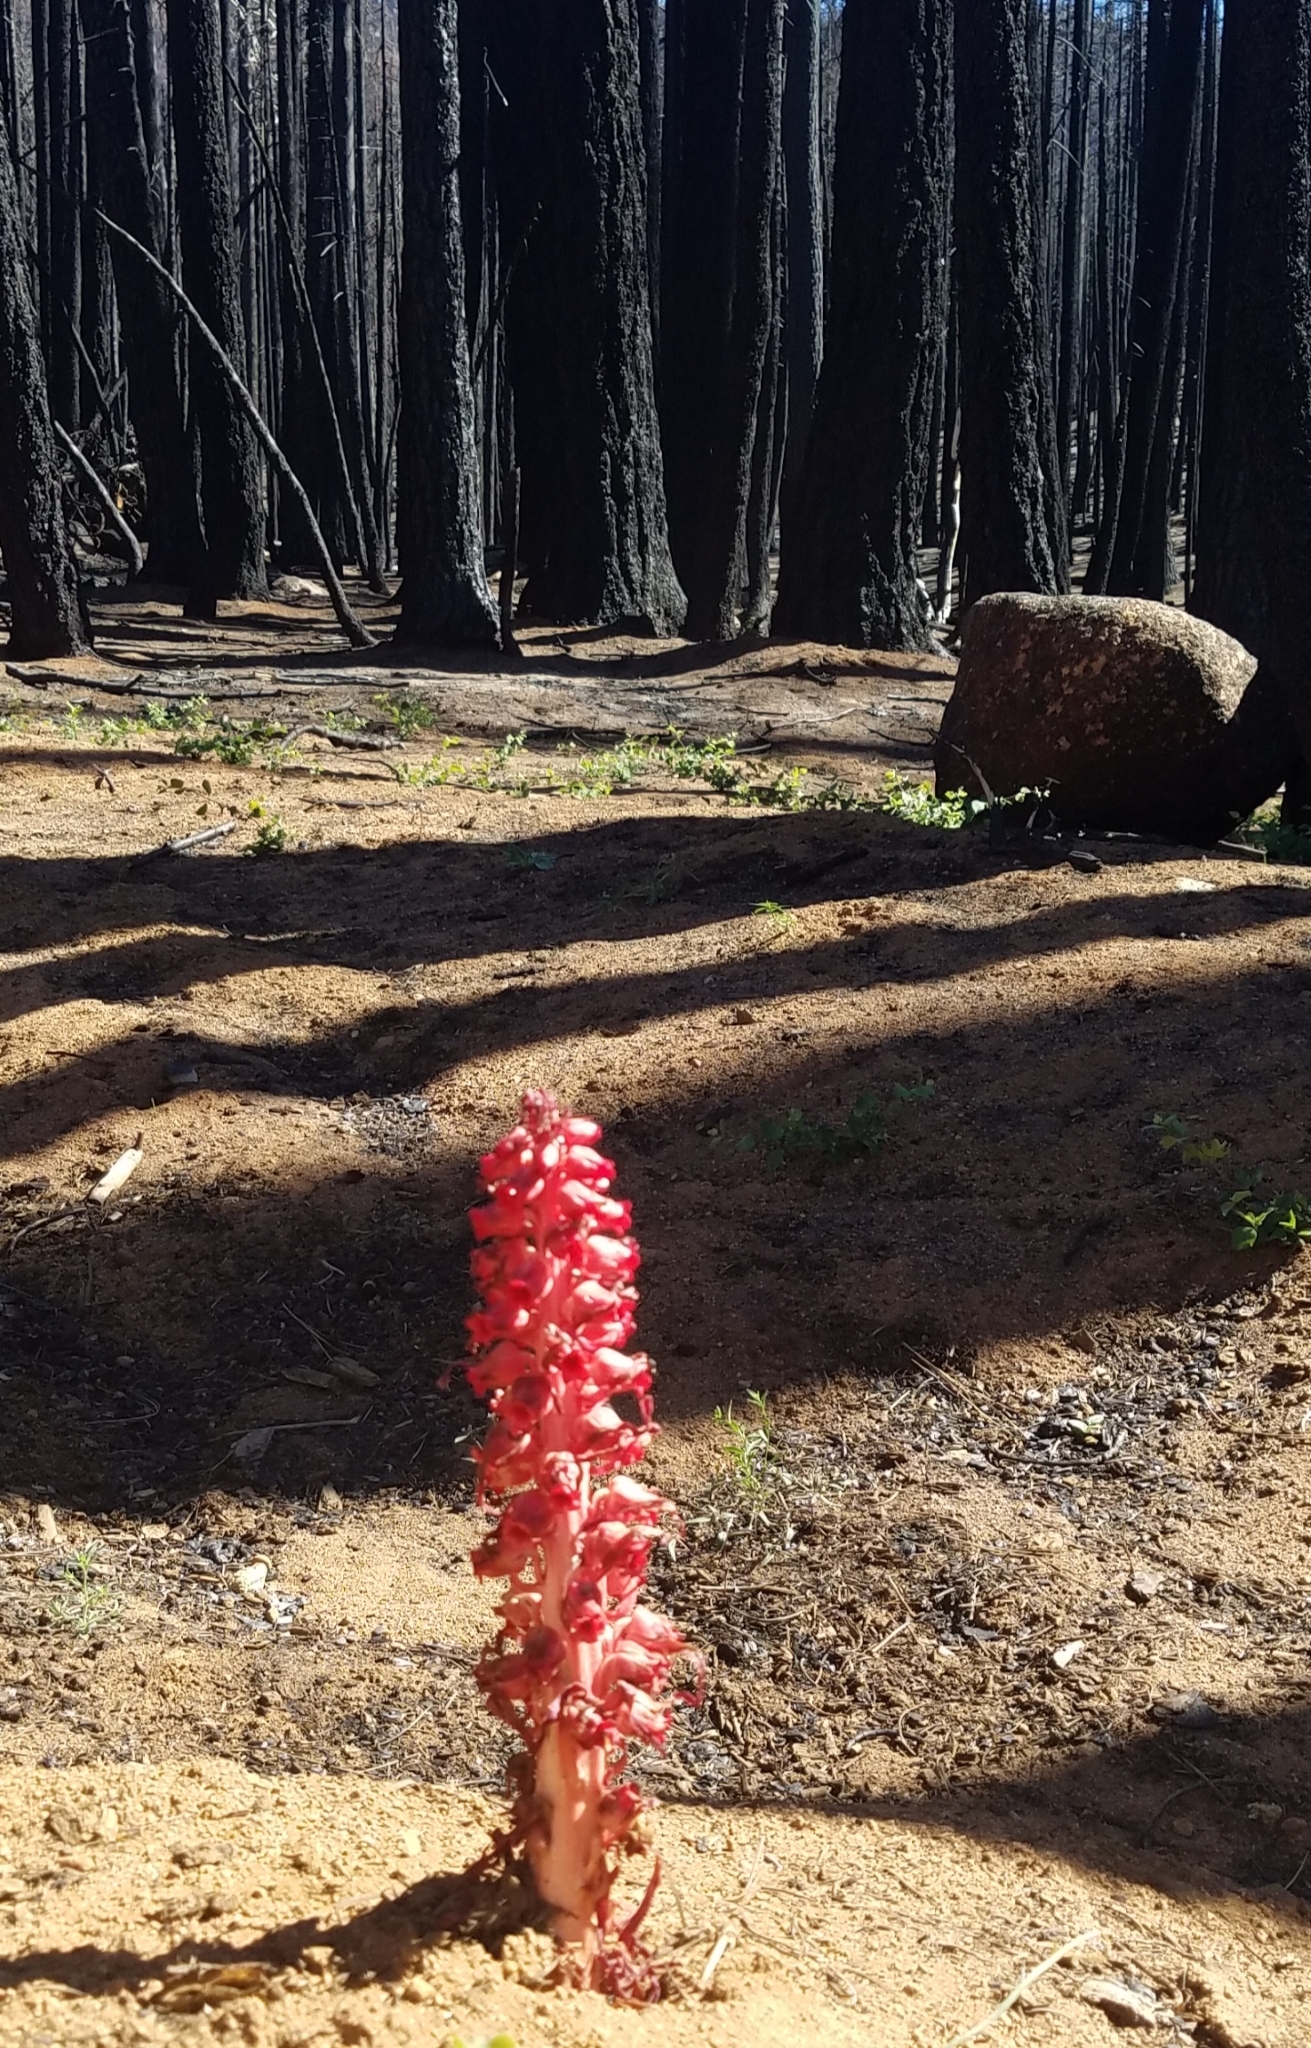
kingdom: Plantae
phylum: Tracheophyta
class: Magnoliopsida
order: Ericales
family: Ericaceae
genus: Sarcodes
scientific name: Sarcodes sanguinea
